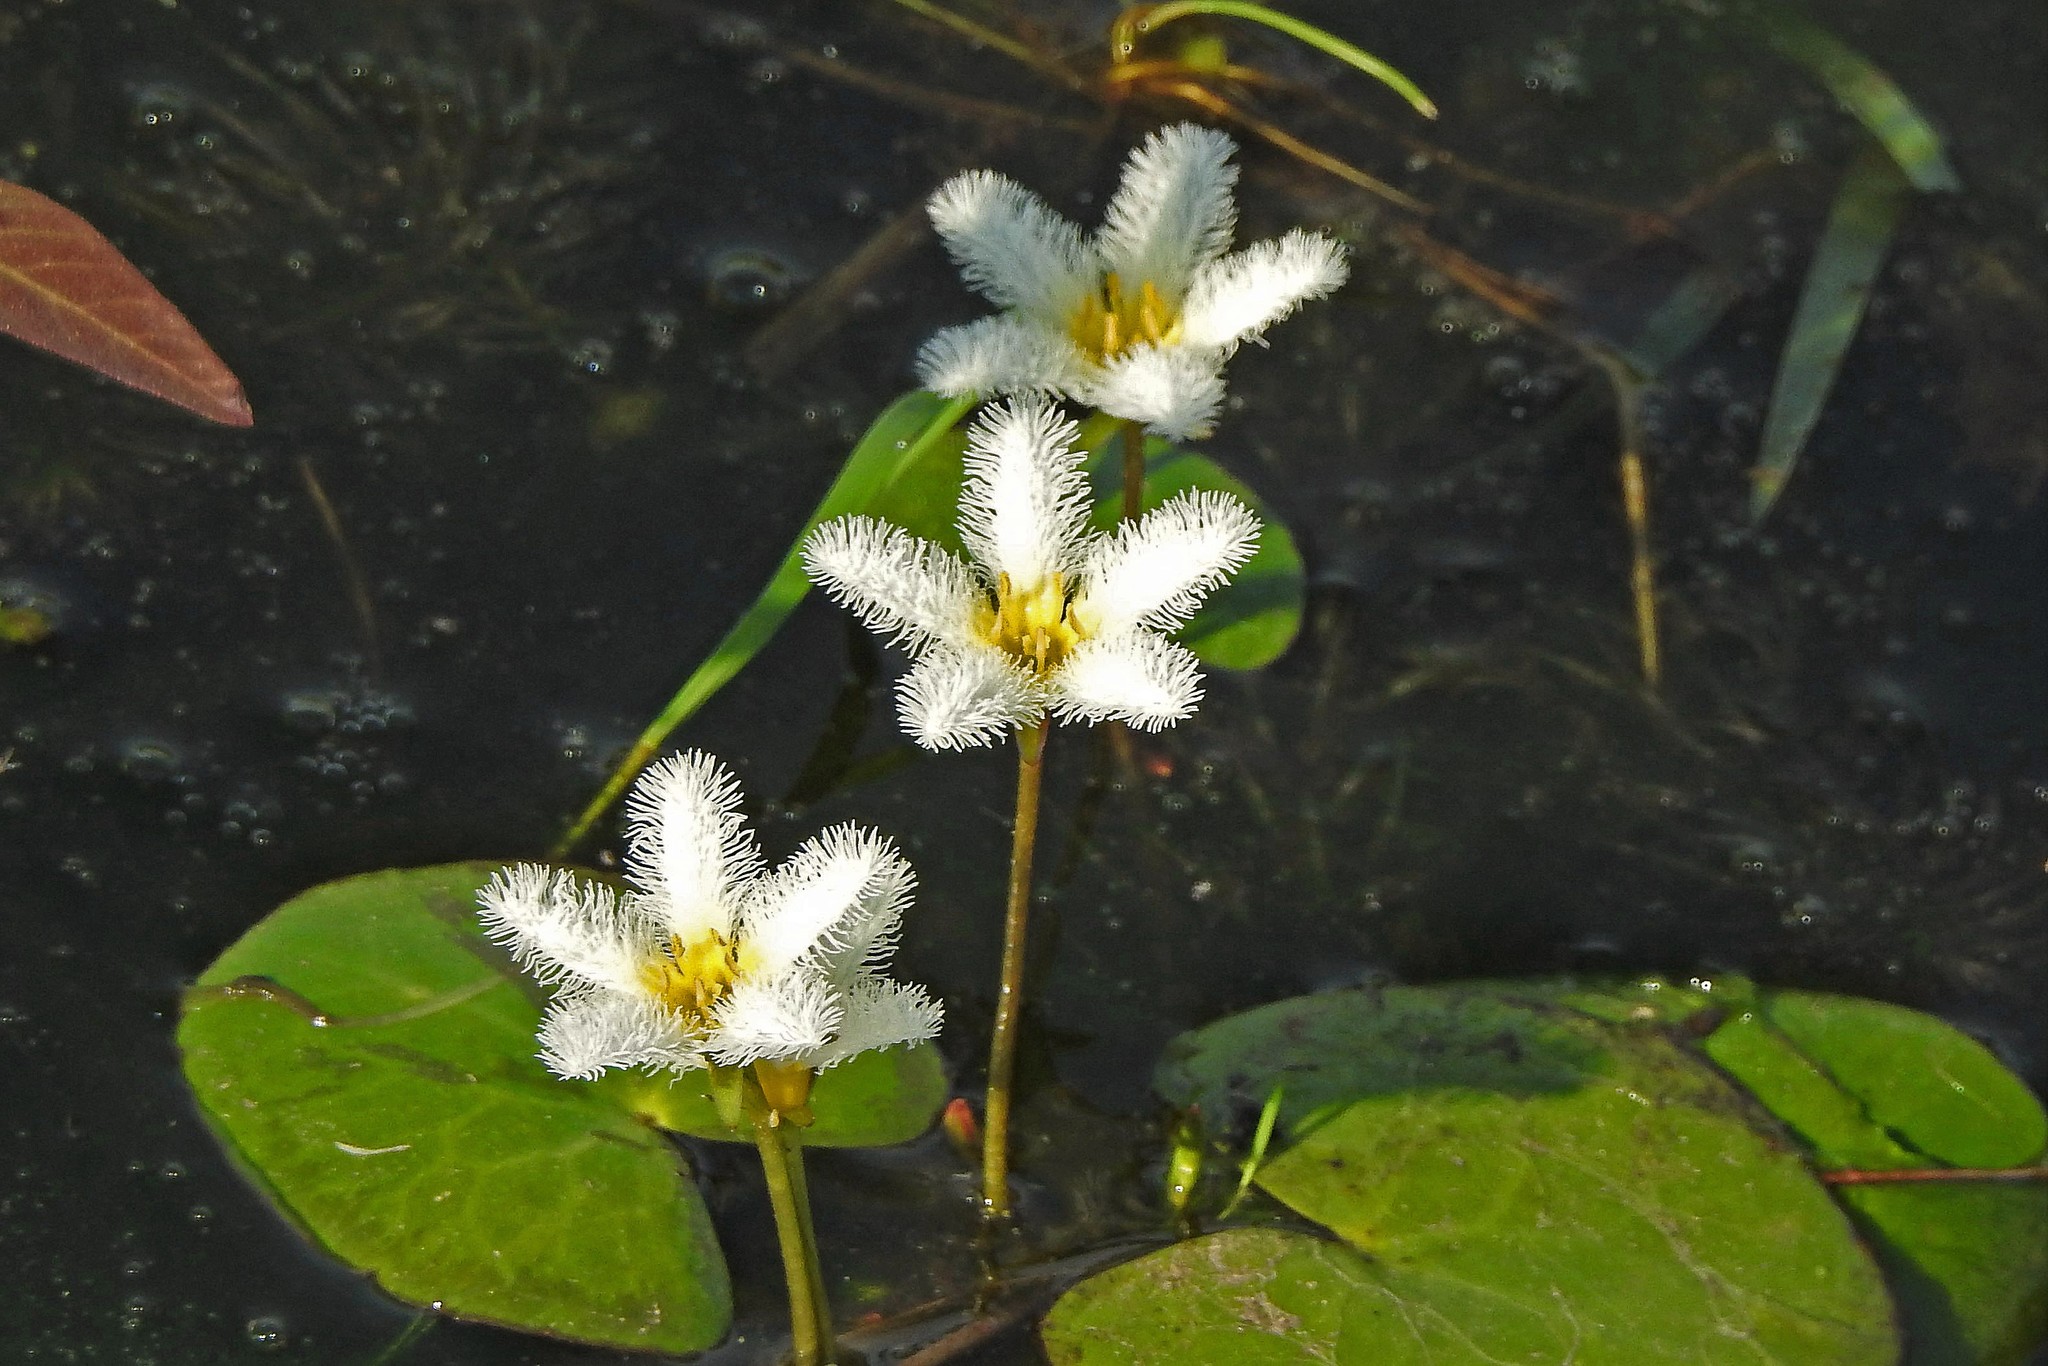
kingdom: Plantae
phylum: Tracheophyta
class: Magnoliopsida
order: Asterales
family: Menyanthaceae
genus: Nymphoides
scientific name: Nymphoides humboldtiana
